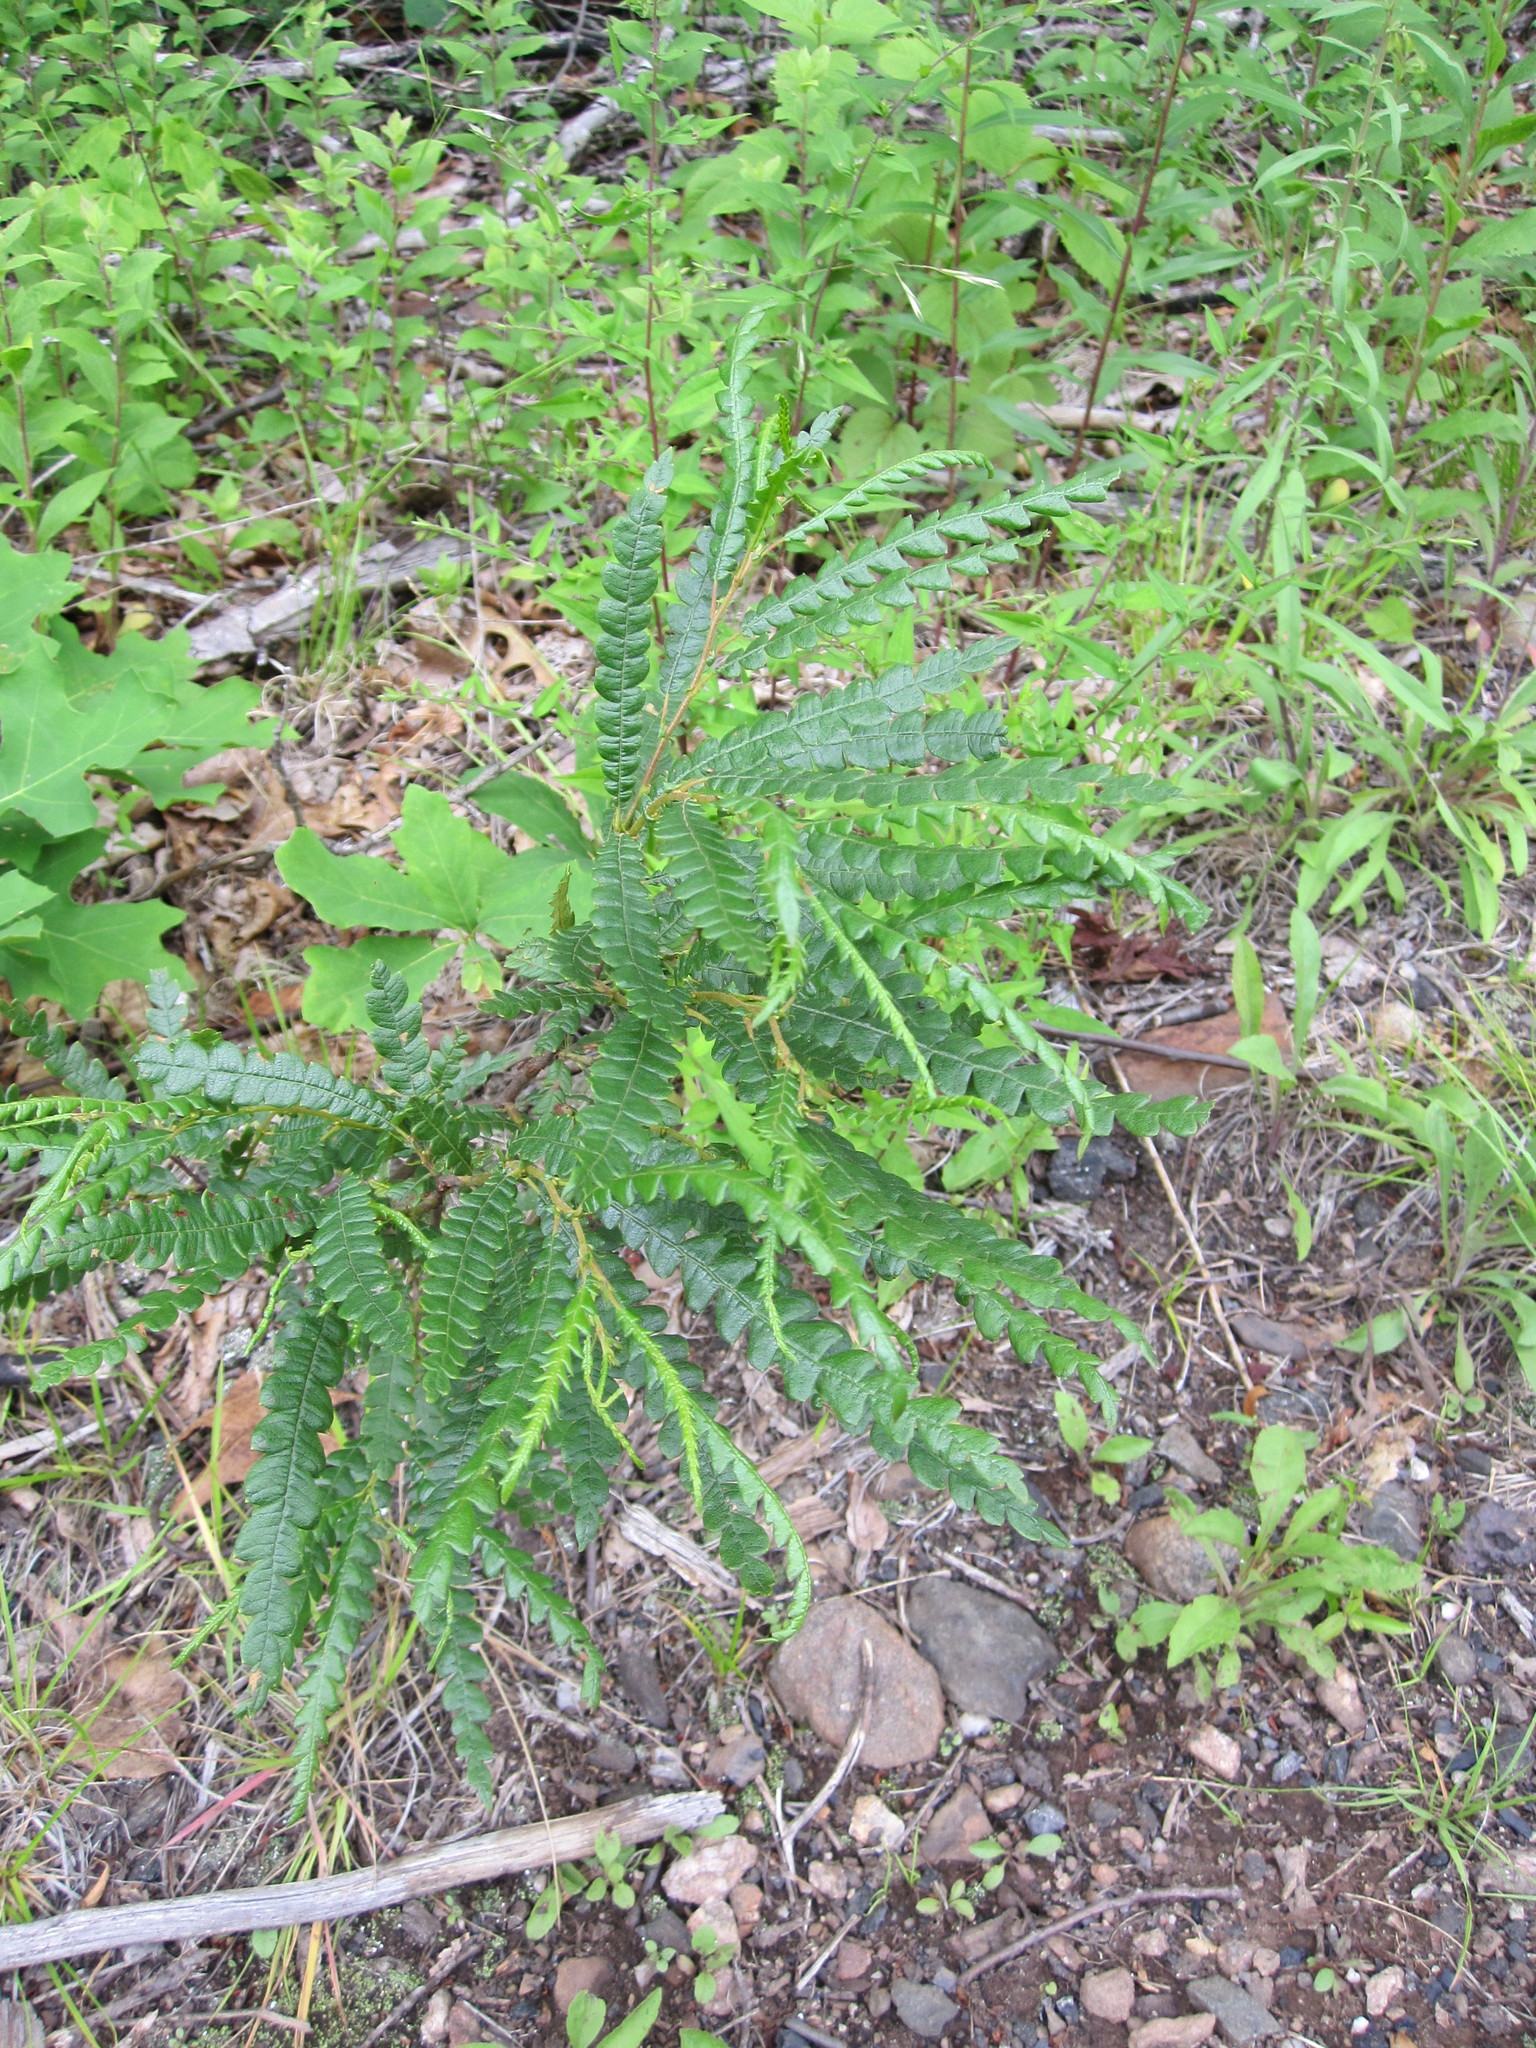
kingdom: Plantae
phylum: Tracheophyta
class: Magnoliopsida
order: Fagales
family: Myricaceae
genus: Comptonia
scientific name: Comptonia peregrina
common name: Sweet-fern
